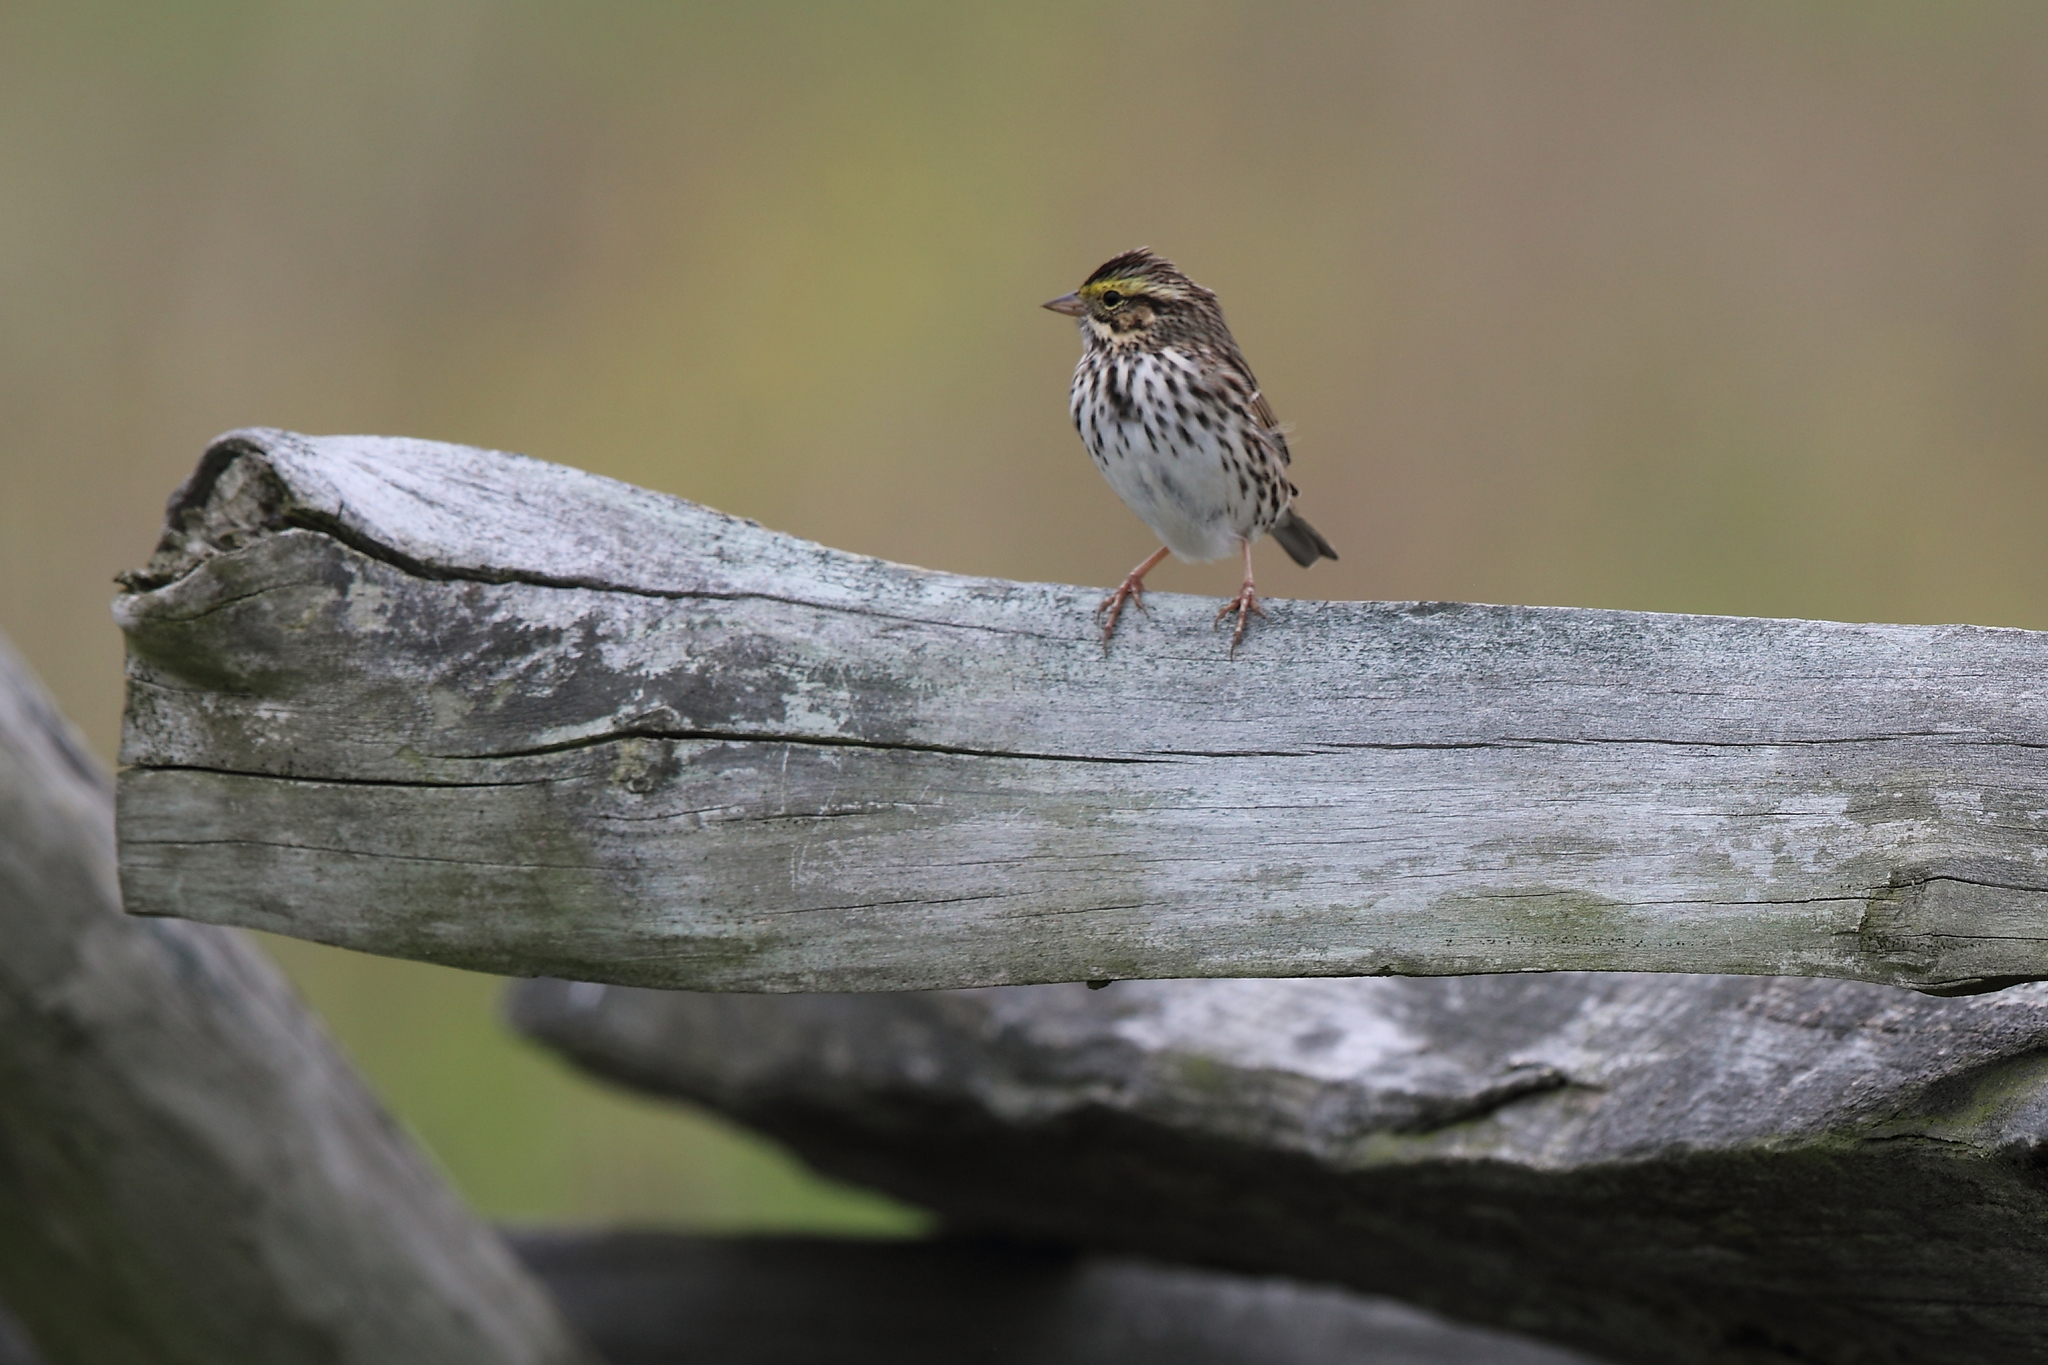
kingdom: Animalia
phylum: Chordata
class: Aves
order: Passeriformes
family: Passerellidae
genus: Passerculus
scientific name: Passerculus sandwichensis
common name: Savannah sparrow
